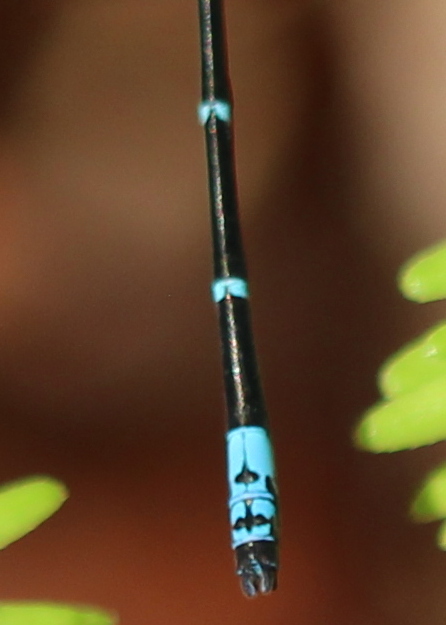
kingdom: Animalia
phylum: Arthropoda
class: Insecta
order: Odonata
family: Coenagrionidae
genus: Chromagrion
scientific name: Chromagrion conditum
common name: Aurora damsel
